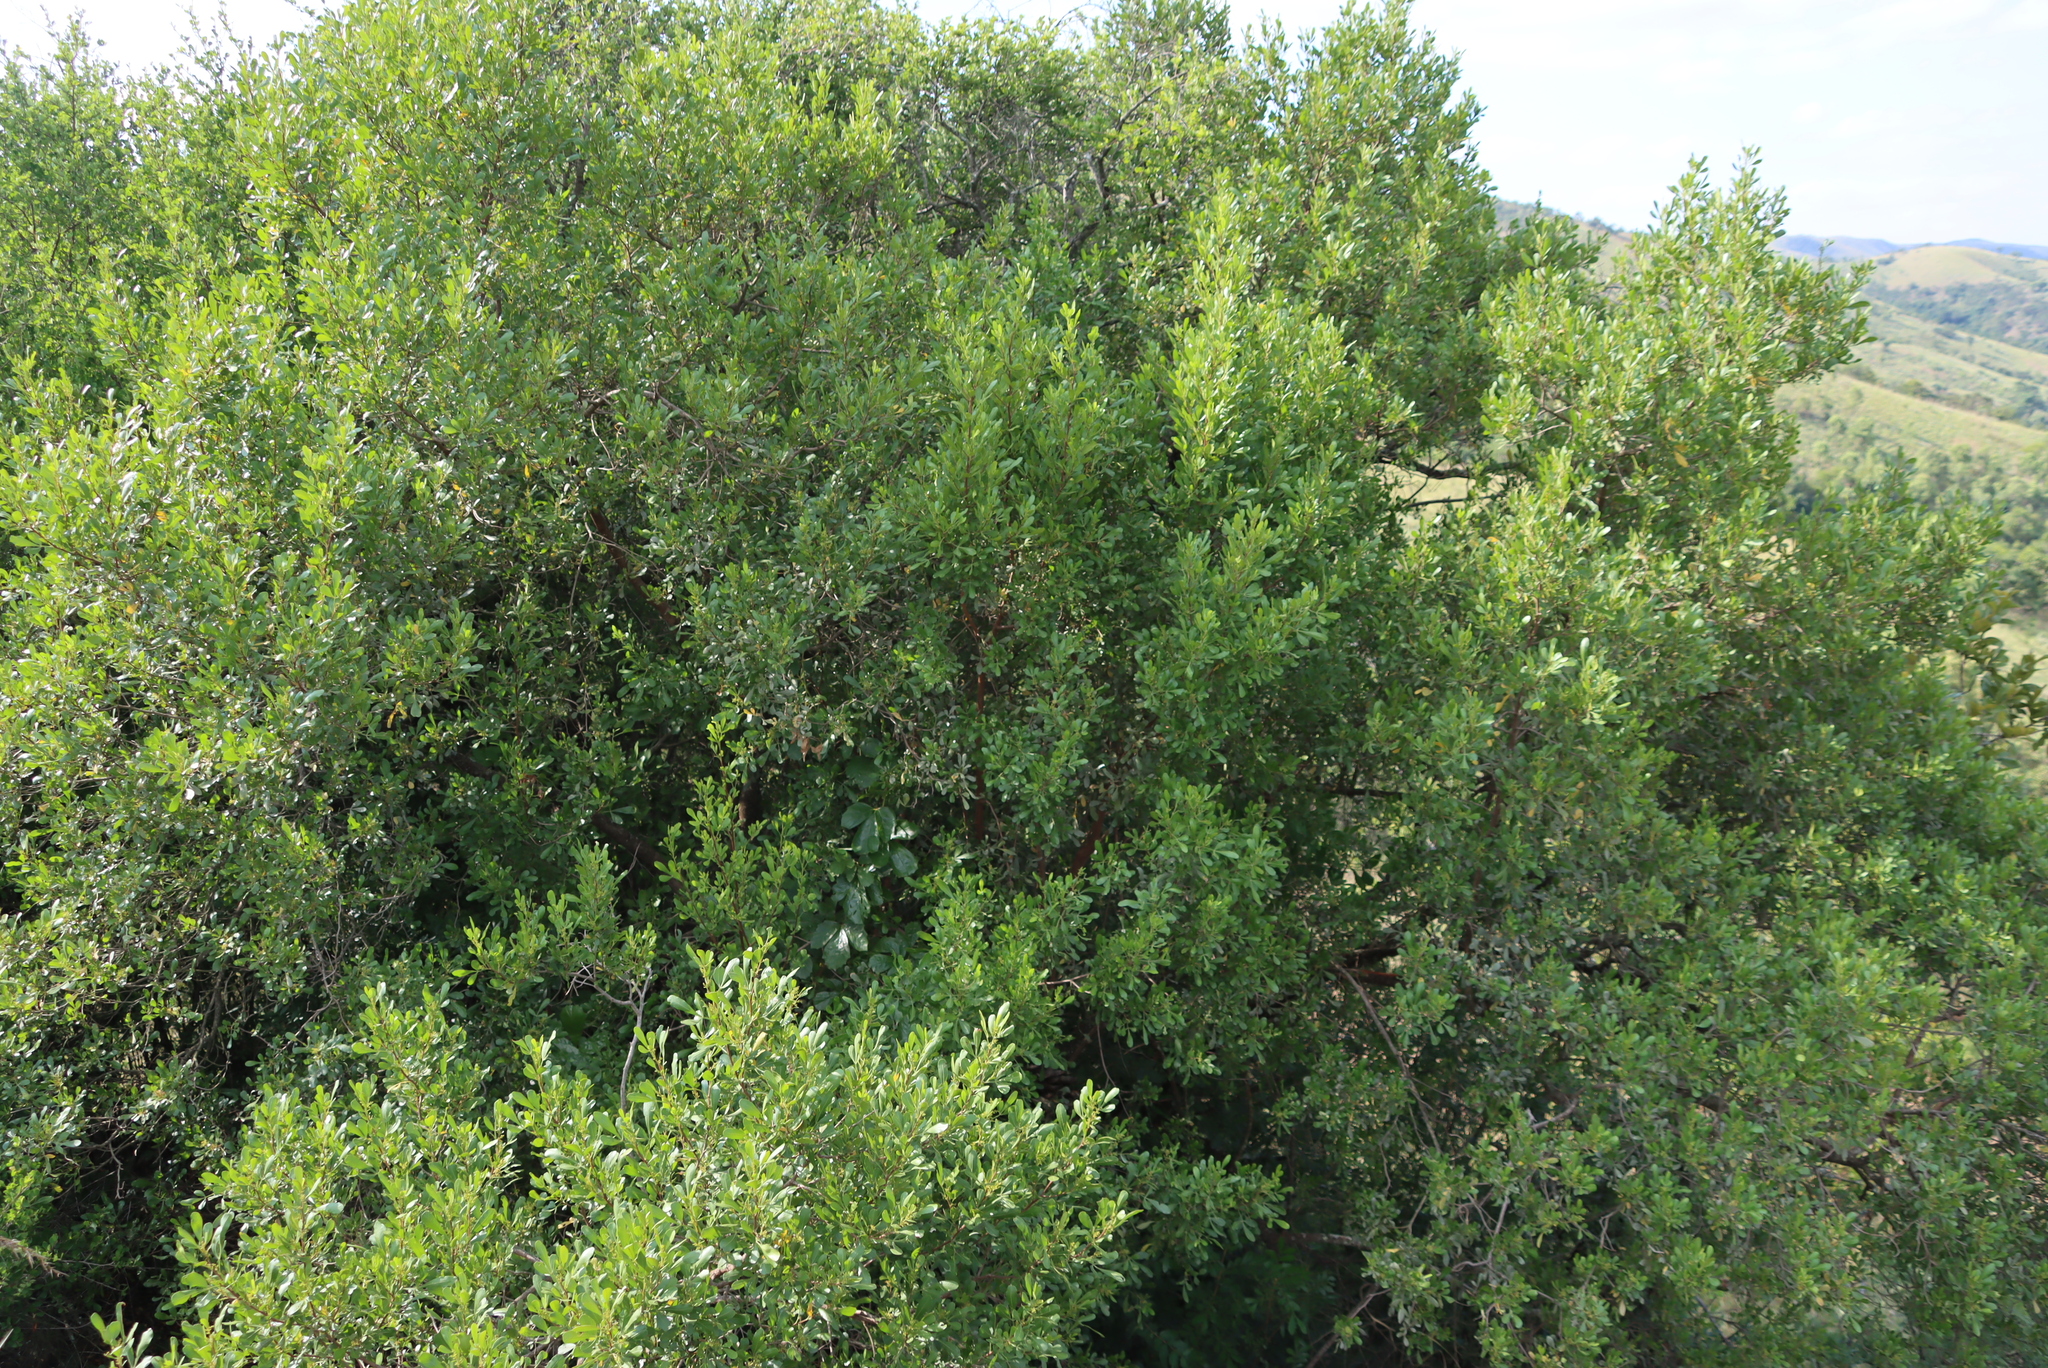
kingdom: Plantae
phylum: Tracheophyta
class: Magnoliopsida
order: Sapindales
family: Anacardiaceae
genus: Searsia
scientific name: Searsia pallens
